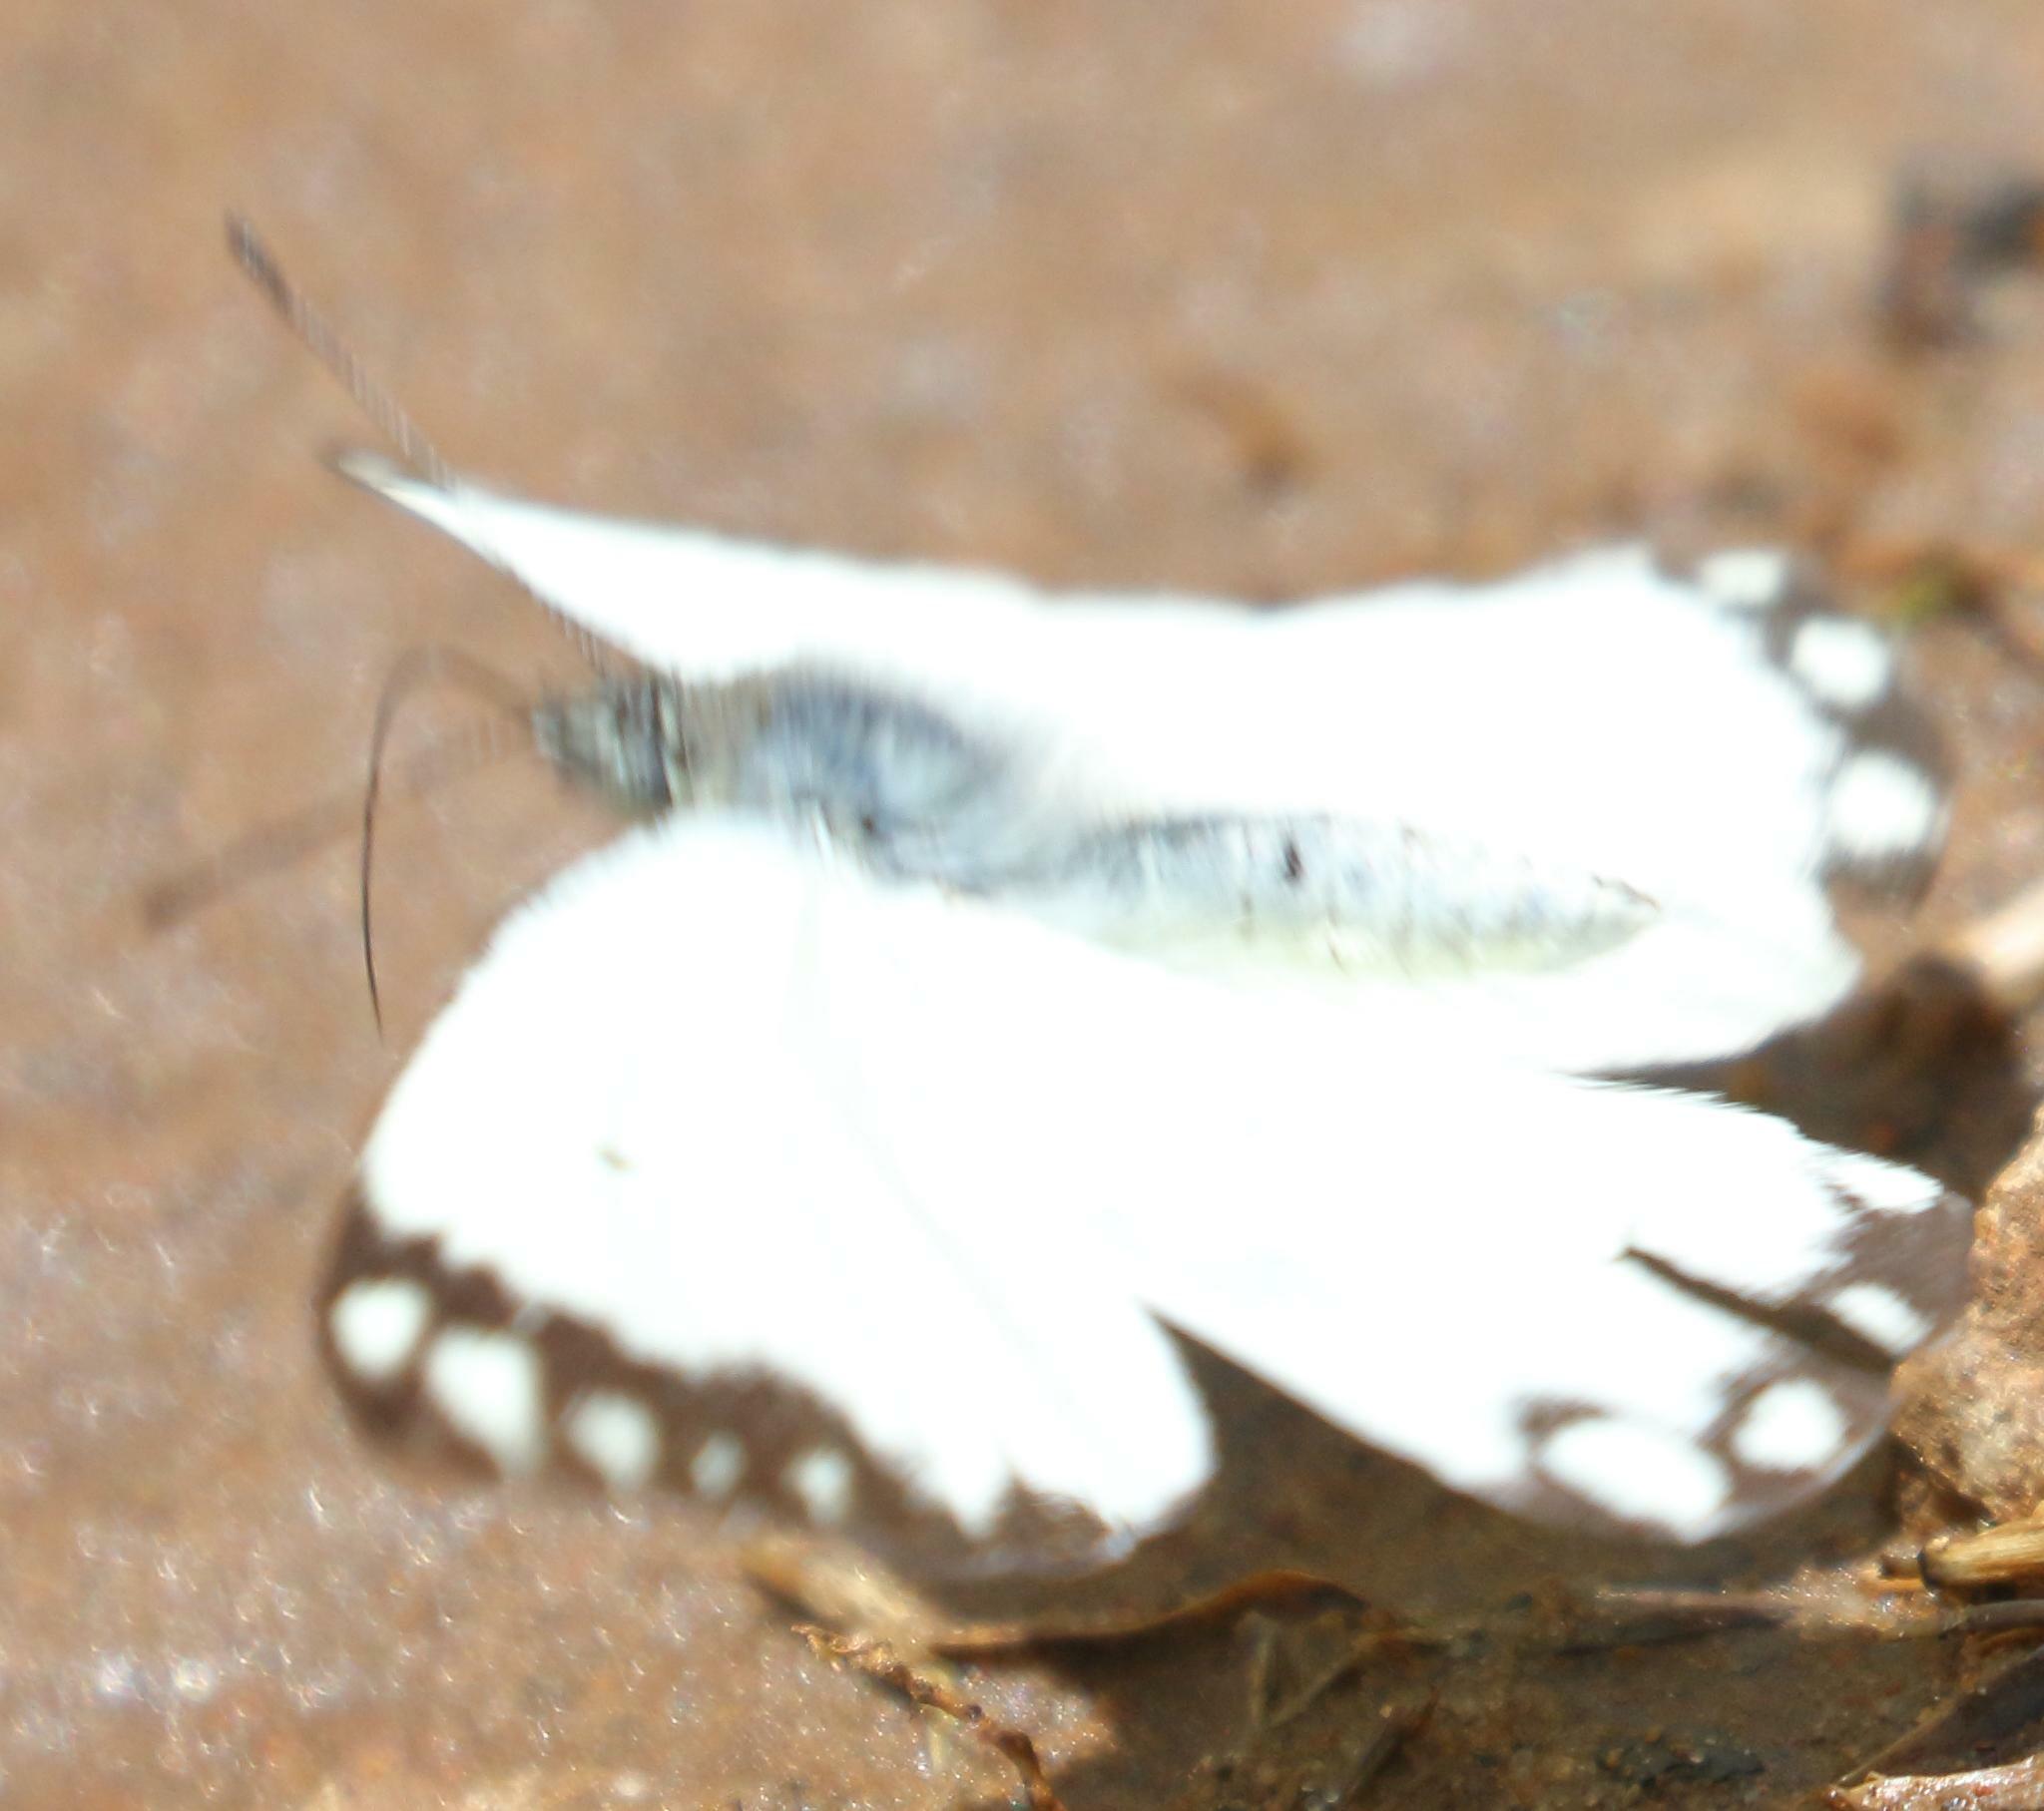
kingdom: Animalia
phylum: Arthropoda
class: Insecta
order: Lepidoptera
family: Pieridae
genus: Belenois
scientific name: Belenois creona
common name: African caper white
